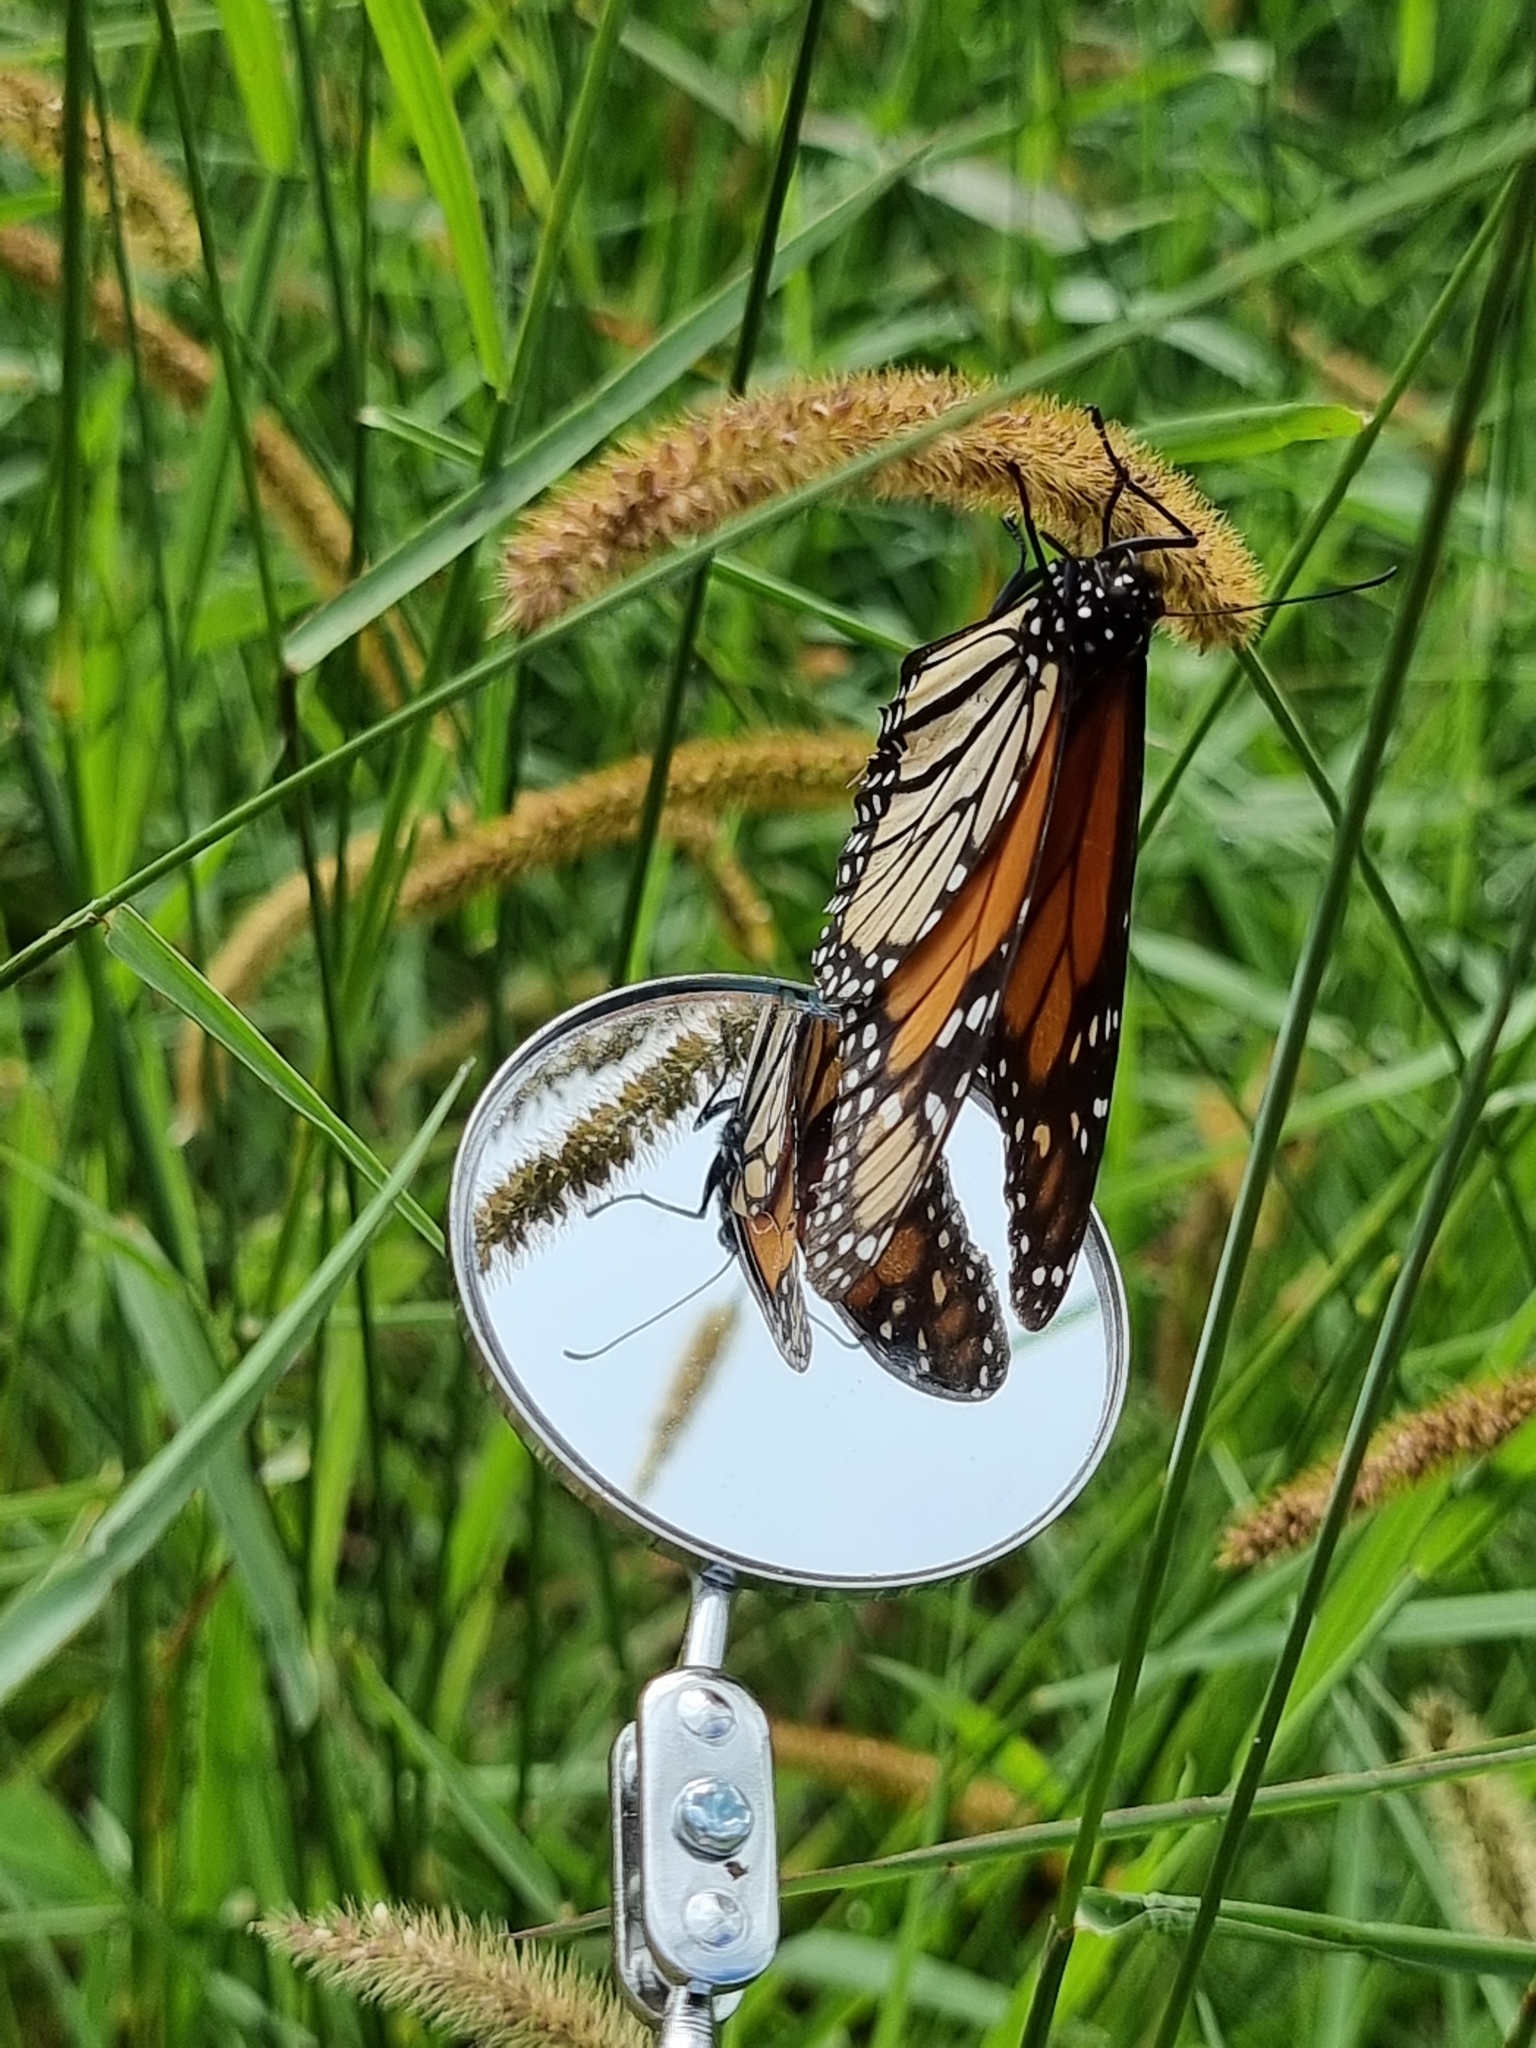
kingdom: Animalia
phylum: Arthropoda
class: Insecta
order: Lepidoptera
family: Nymphalidae
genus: Danaus
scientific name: Danaus plexippus
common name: Monarch
